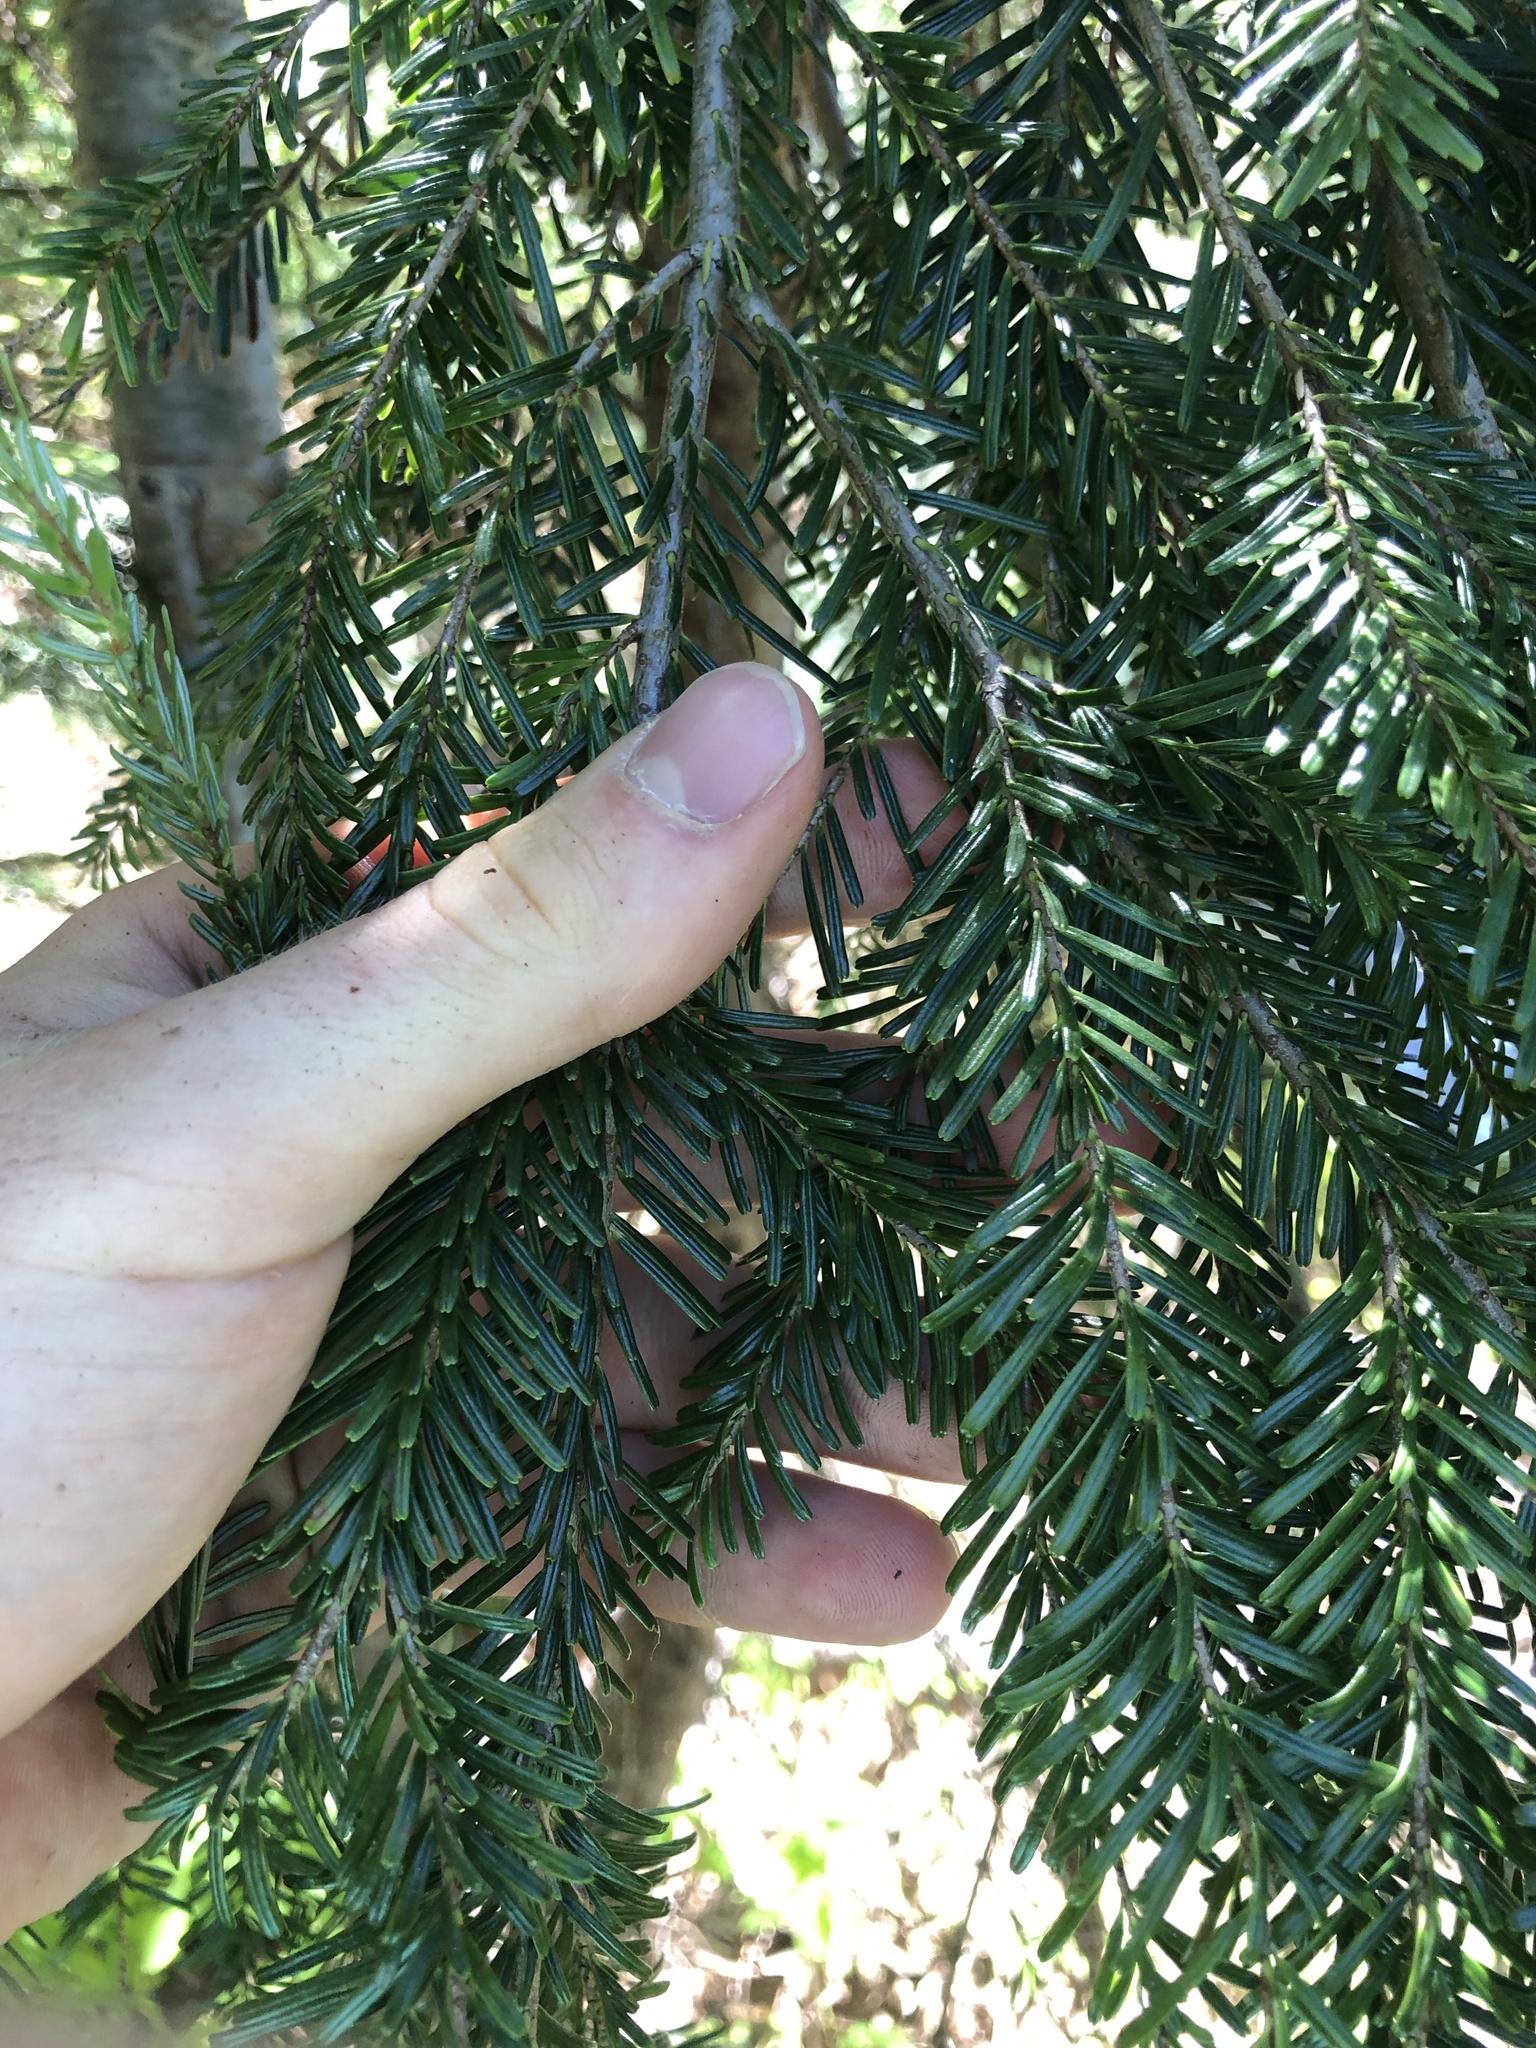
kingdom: Plantae
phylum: Tracheophyta
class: Pinopsida
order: Pinales
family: Pinaceae
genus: Abies
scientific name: Abies amabilis
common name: Pacific silver fir
